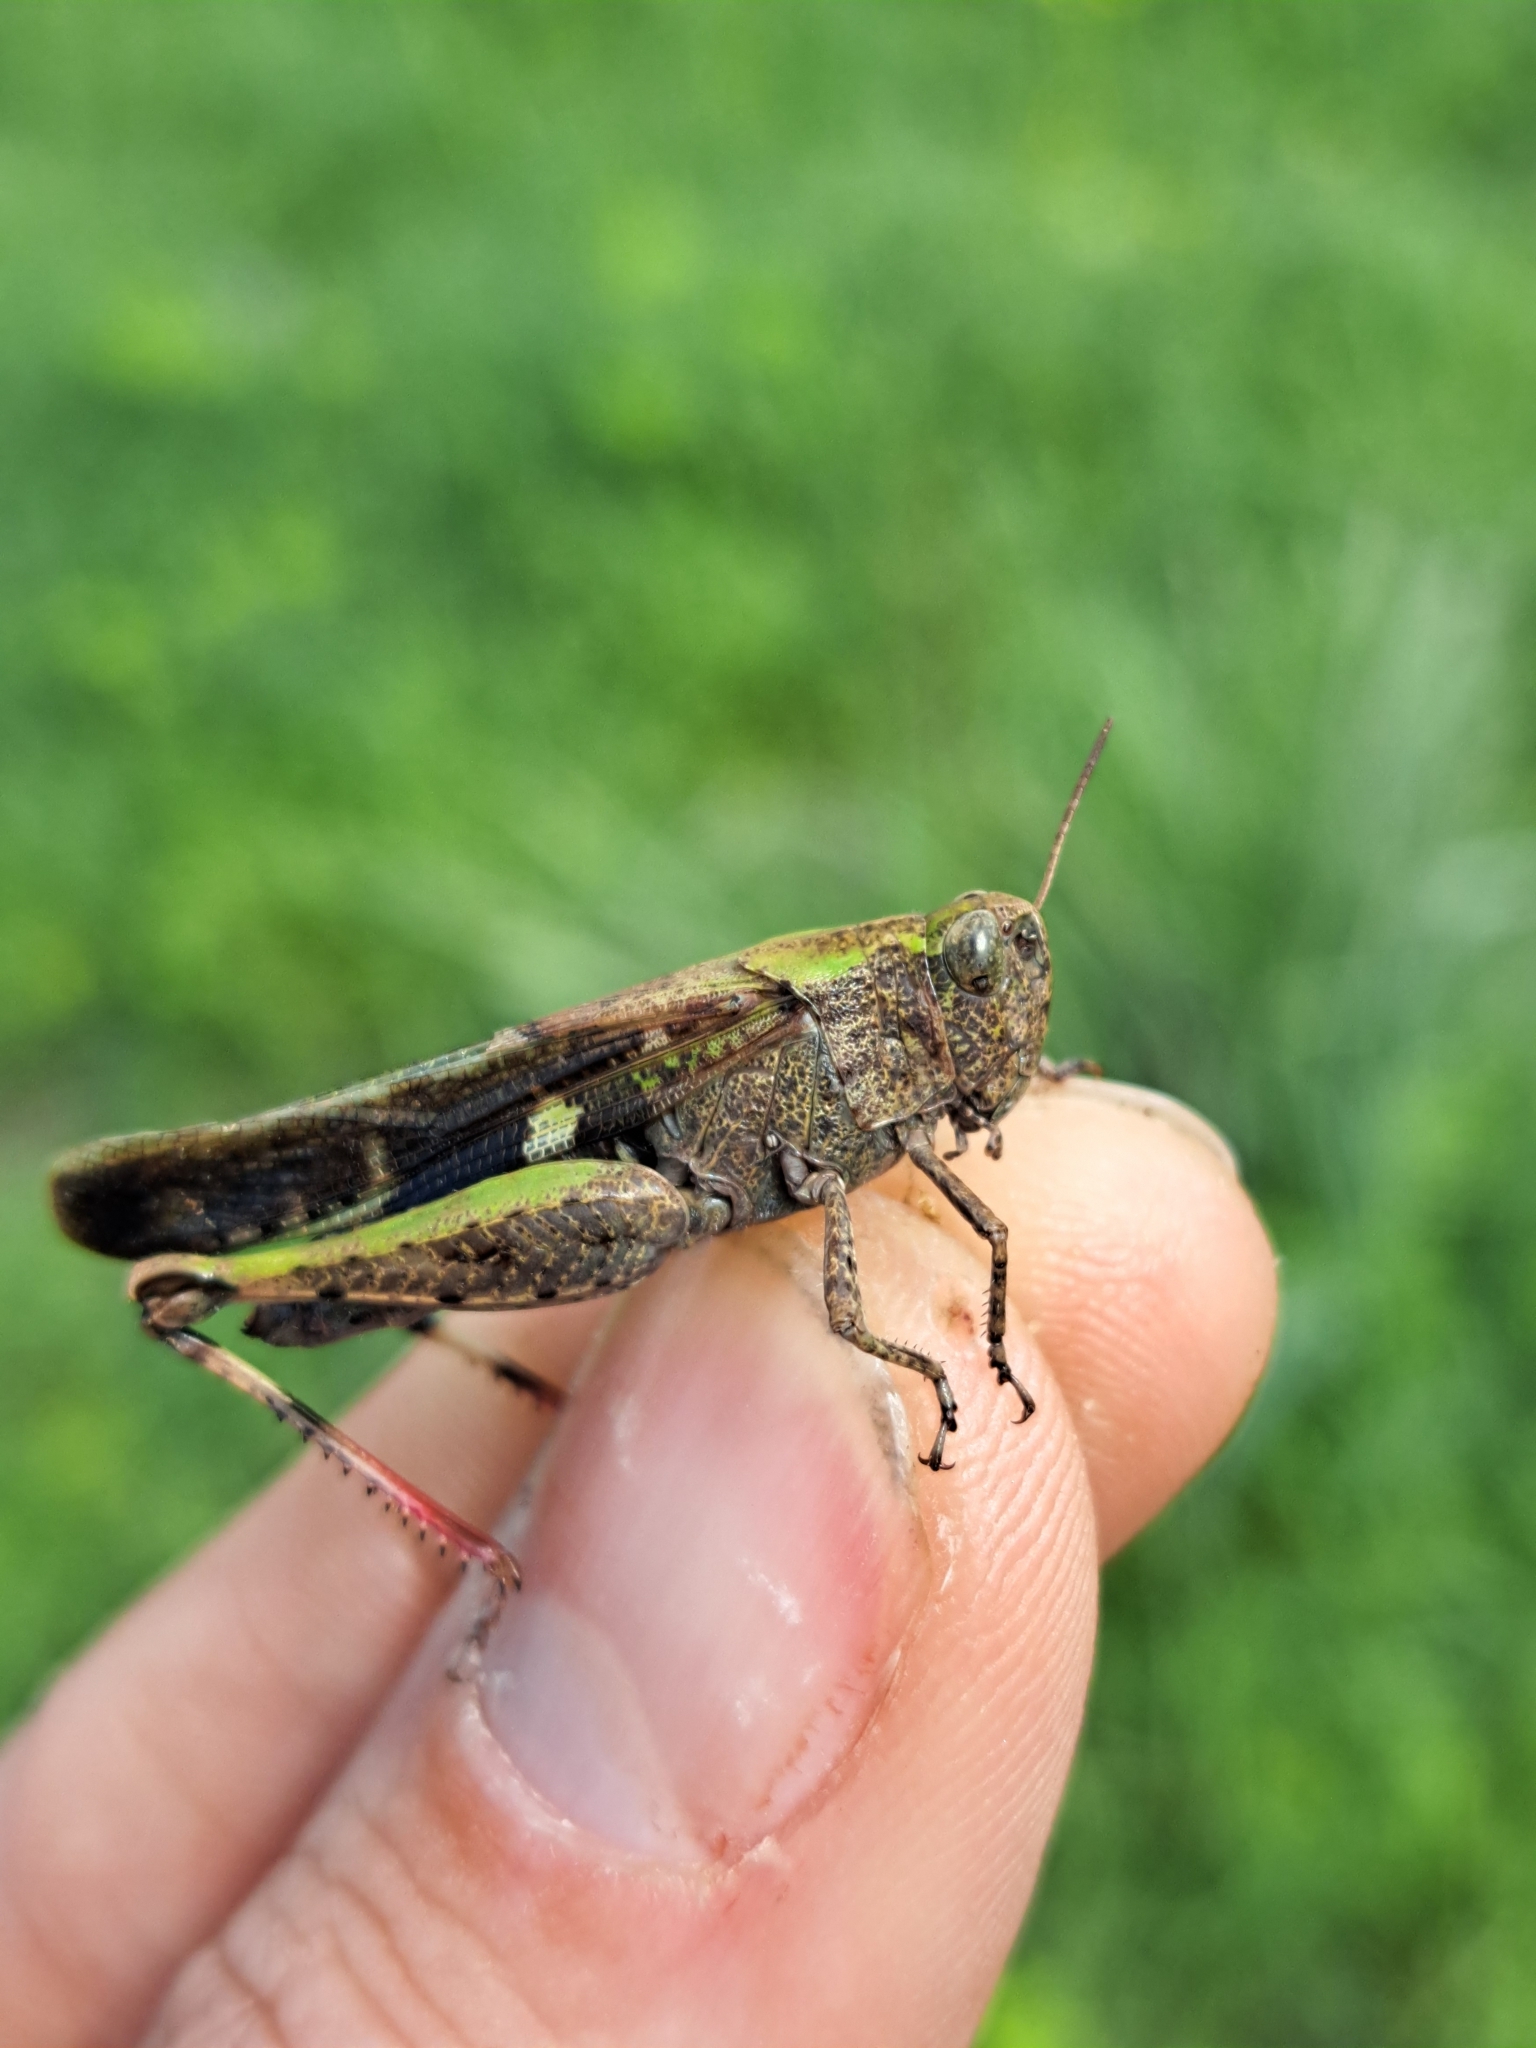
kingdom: Animalia
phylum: Arthropoda
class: Insecta
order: Orthoptera
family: Acrididae
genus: Aiolopus
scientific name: Aiolopus strepens
